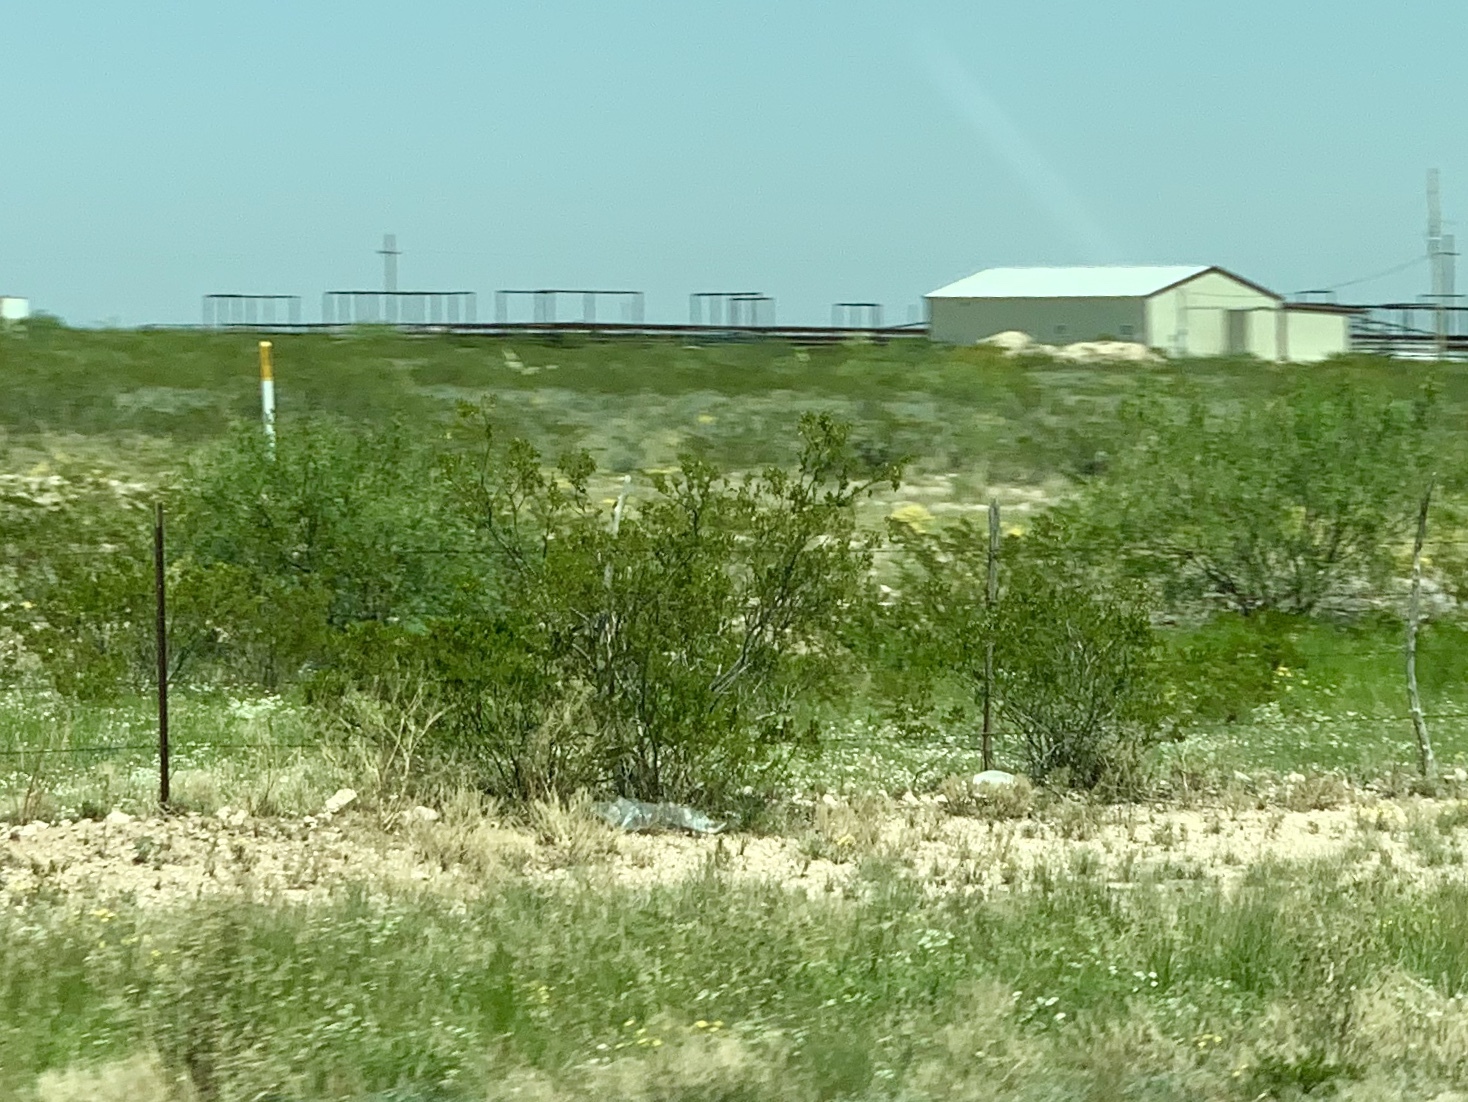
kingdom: Plantae
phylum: Tracheophyta
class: Magnoliopsida
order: Zygophyllales
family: Zygophyllaceae
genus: Larrea
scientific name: Larrea tridentata
